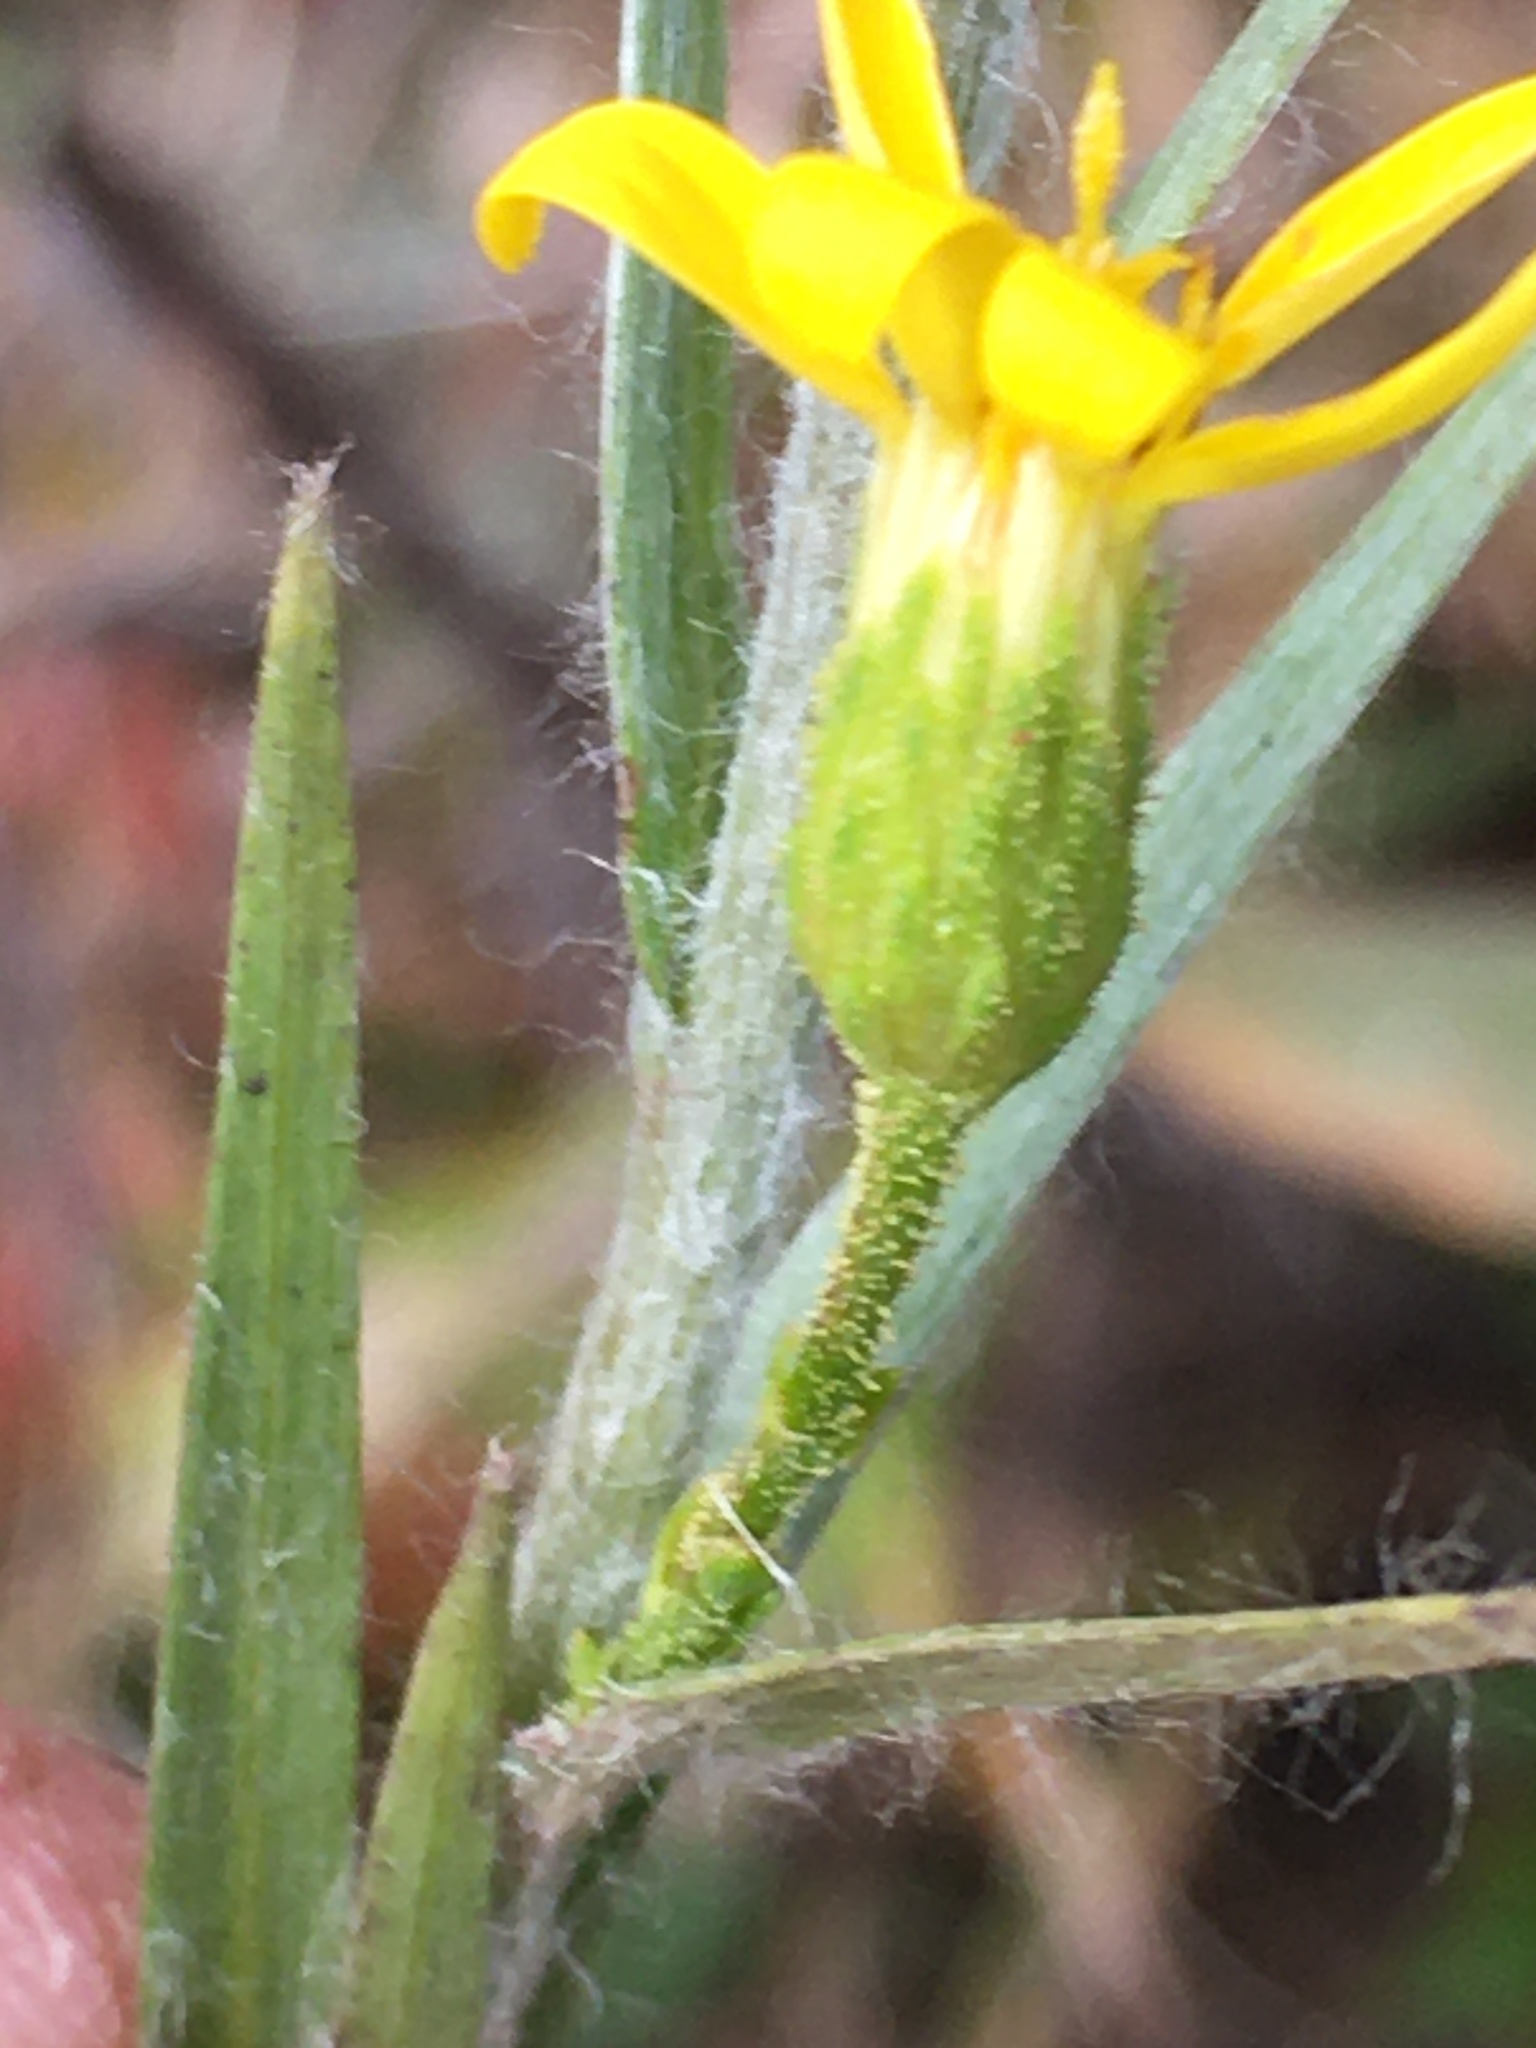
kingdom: Plantae
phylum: Tracheophyta
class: Magnoliopsida
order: Asterales
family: Asteraceae
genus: Pityopsis
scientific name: Pityopsis aspera
